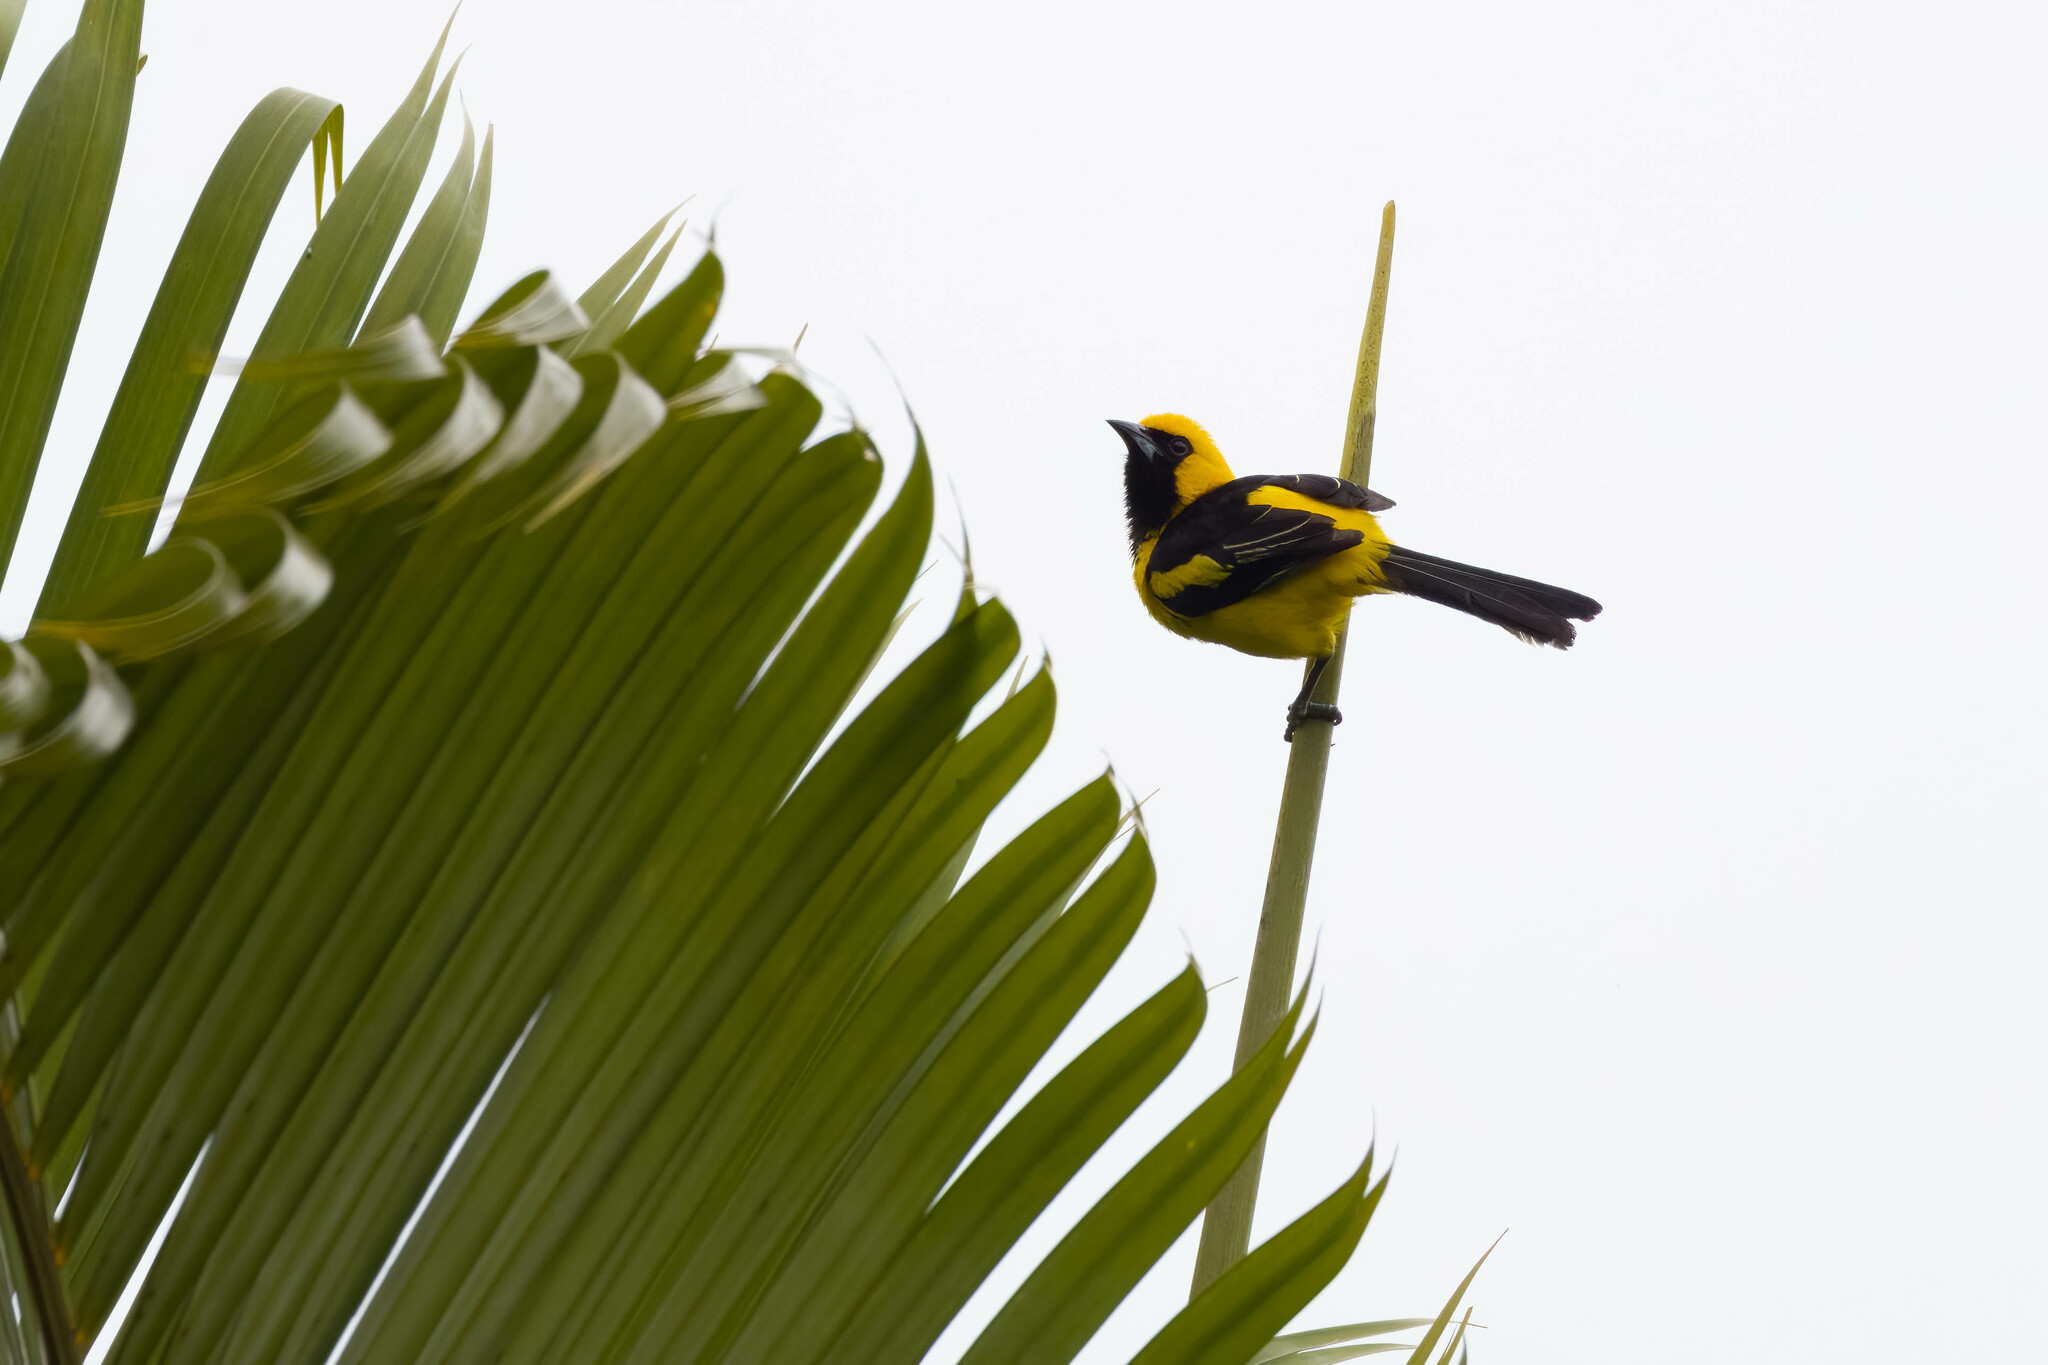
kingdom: Animalia
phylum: Chordata
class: Aves
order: Passeriformes
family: Icteridae
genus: Icterus
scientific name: Icterus mesomelas
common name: Yellow-tailed oriole
